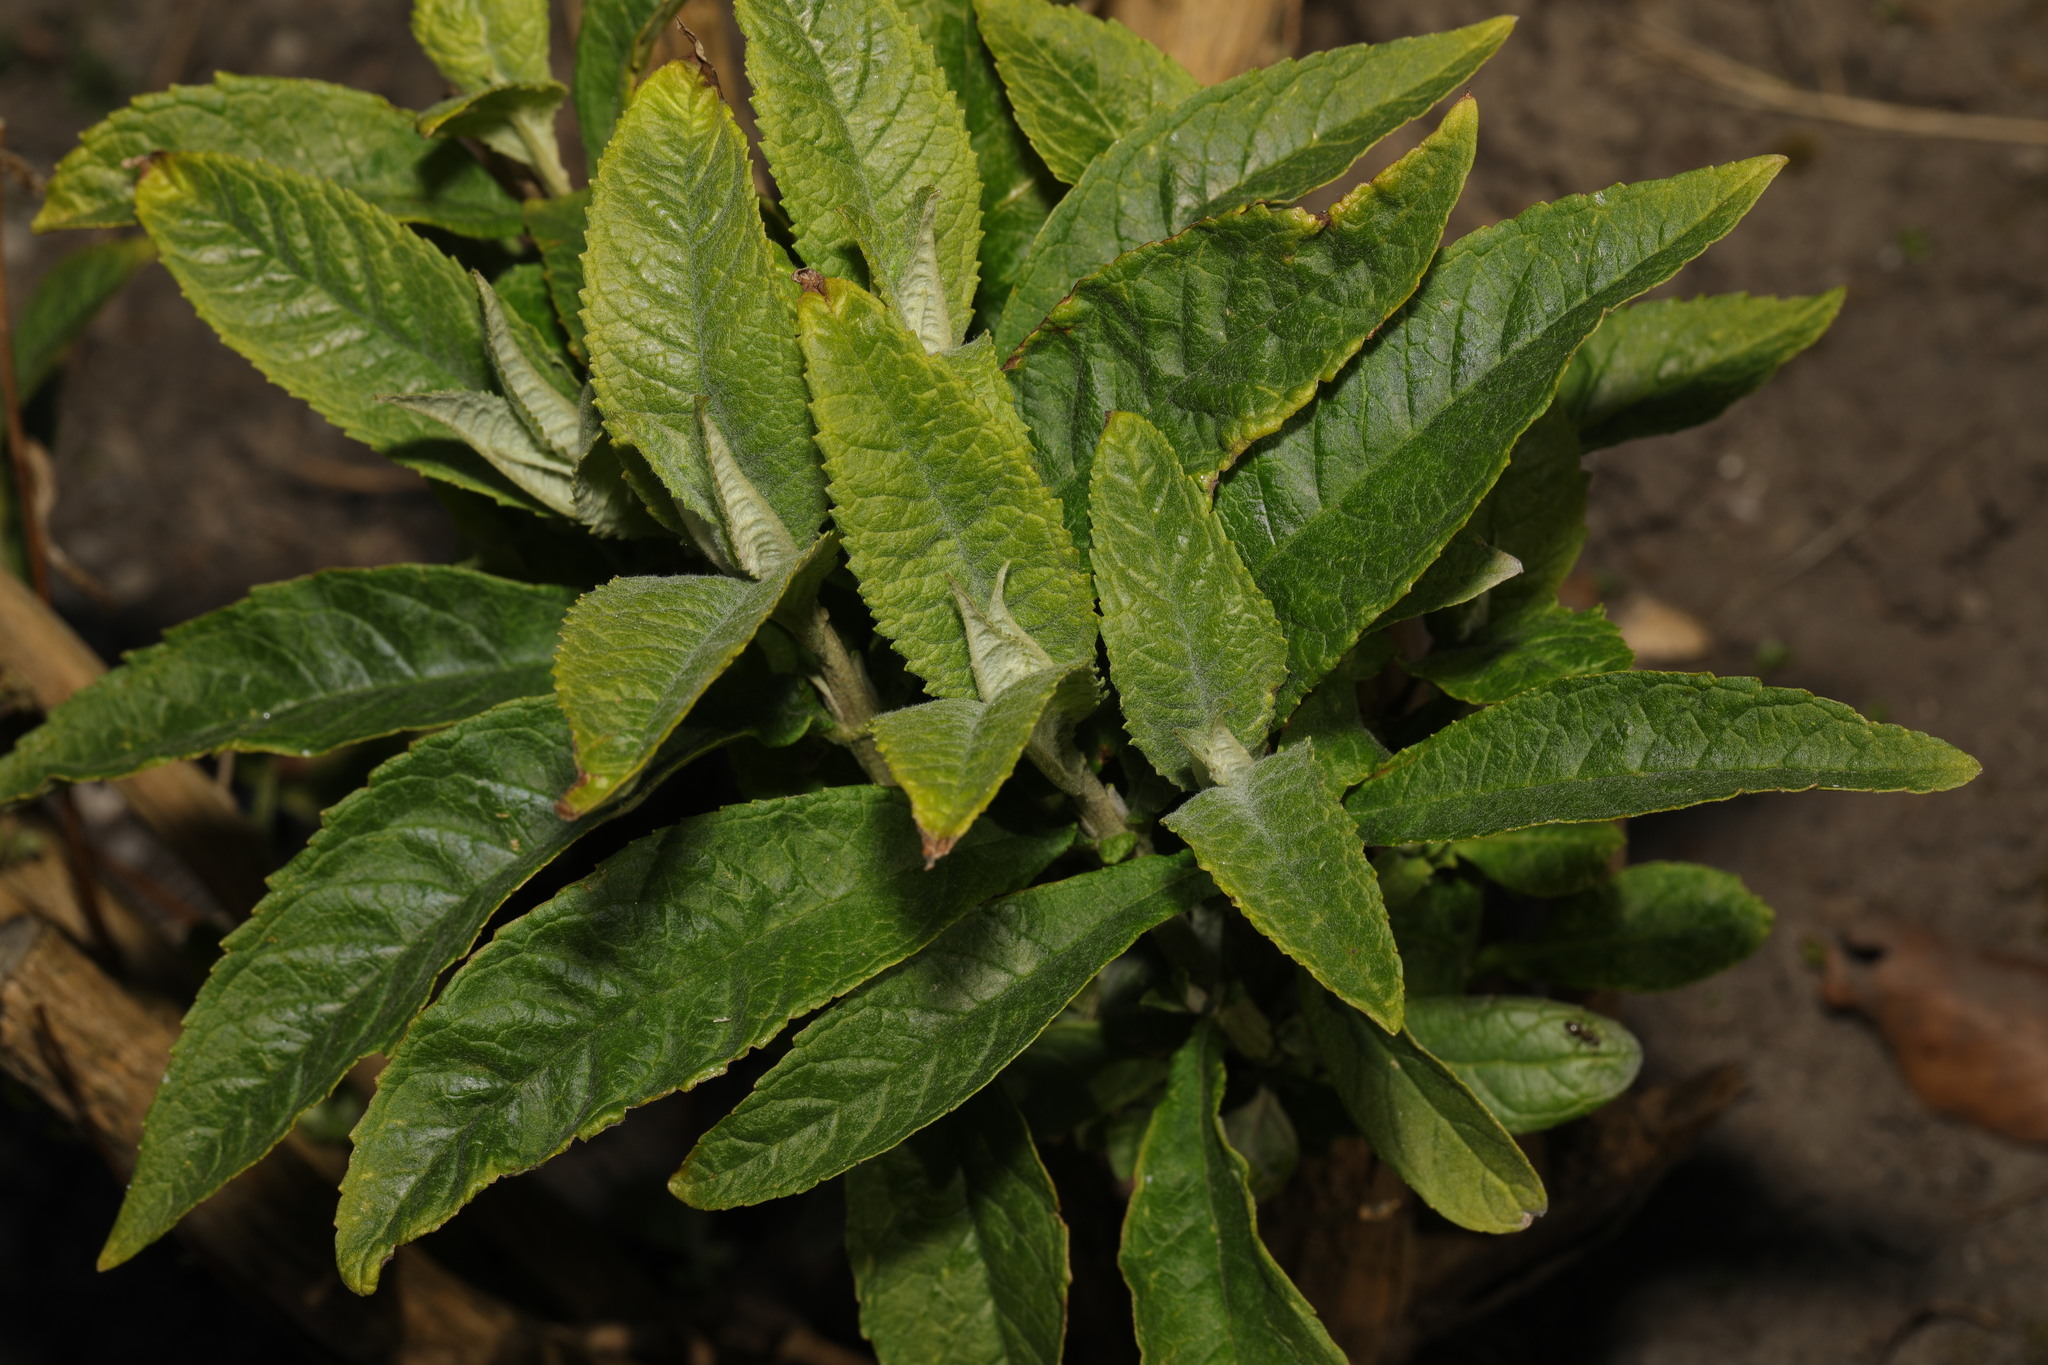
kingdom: Plantae
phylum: Tracheophyta
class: Magnoliopsida
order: Lamiales
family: Scrophulariaceae
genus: Buddleja
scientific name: Buddleja davidii
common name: Butterfly-bush
